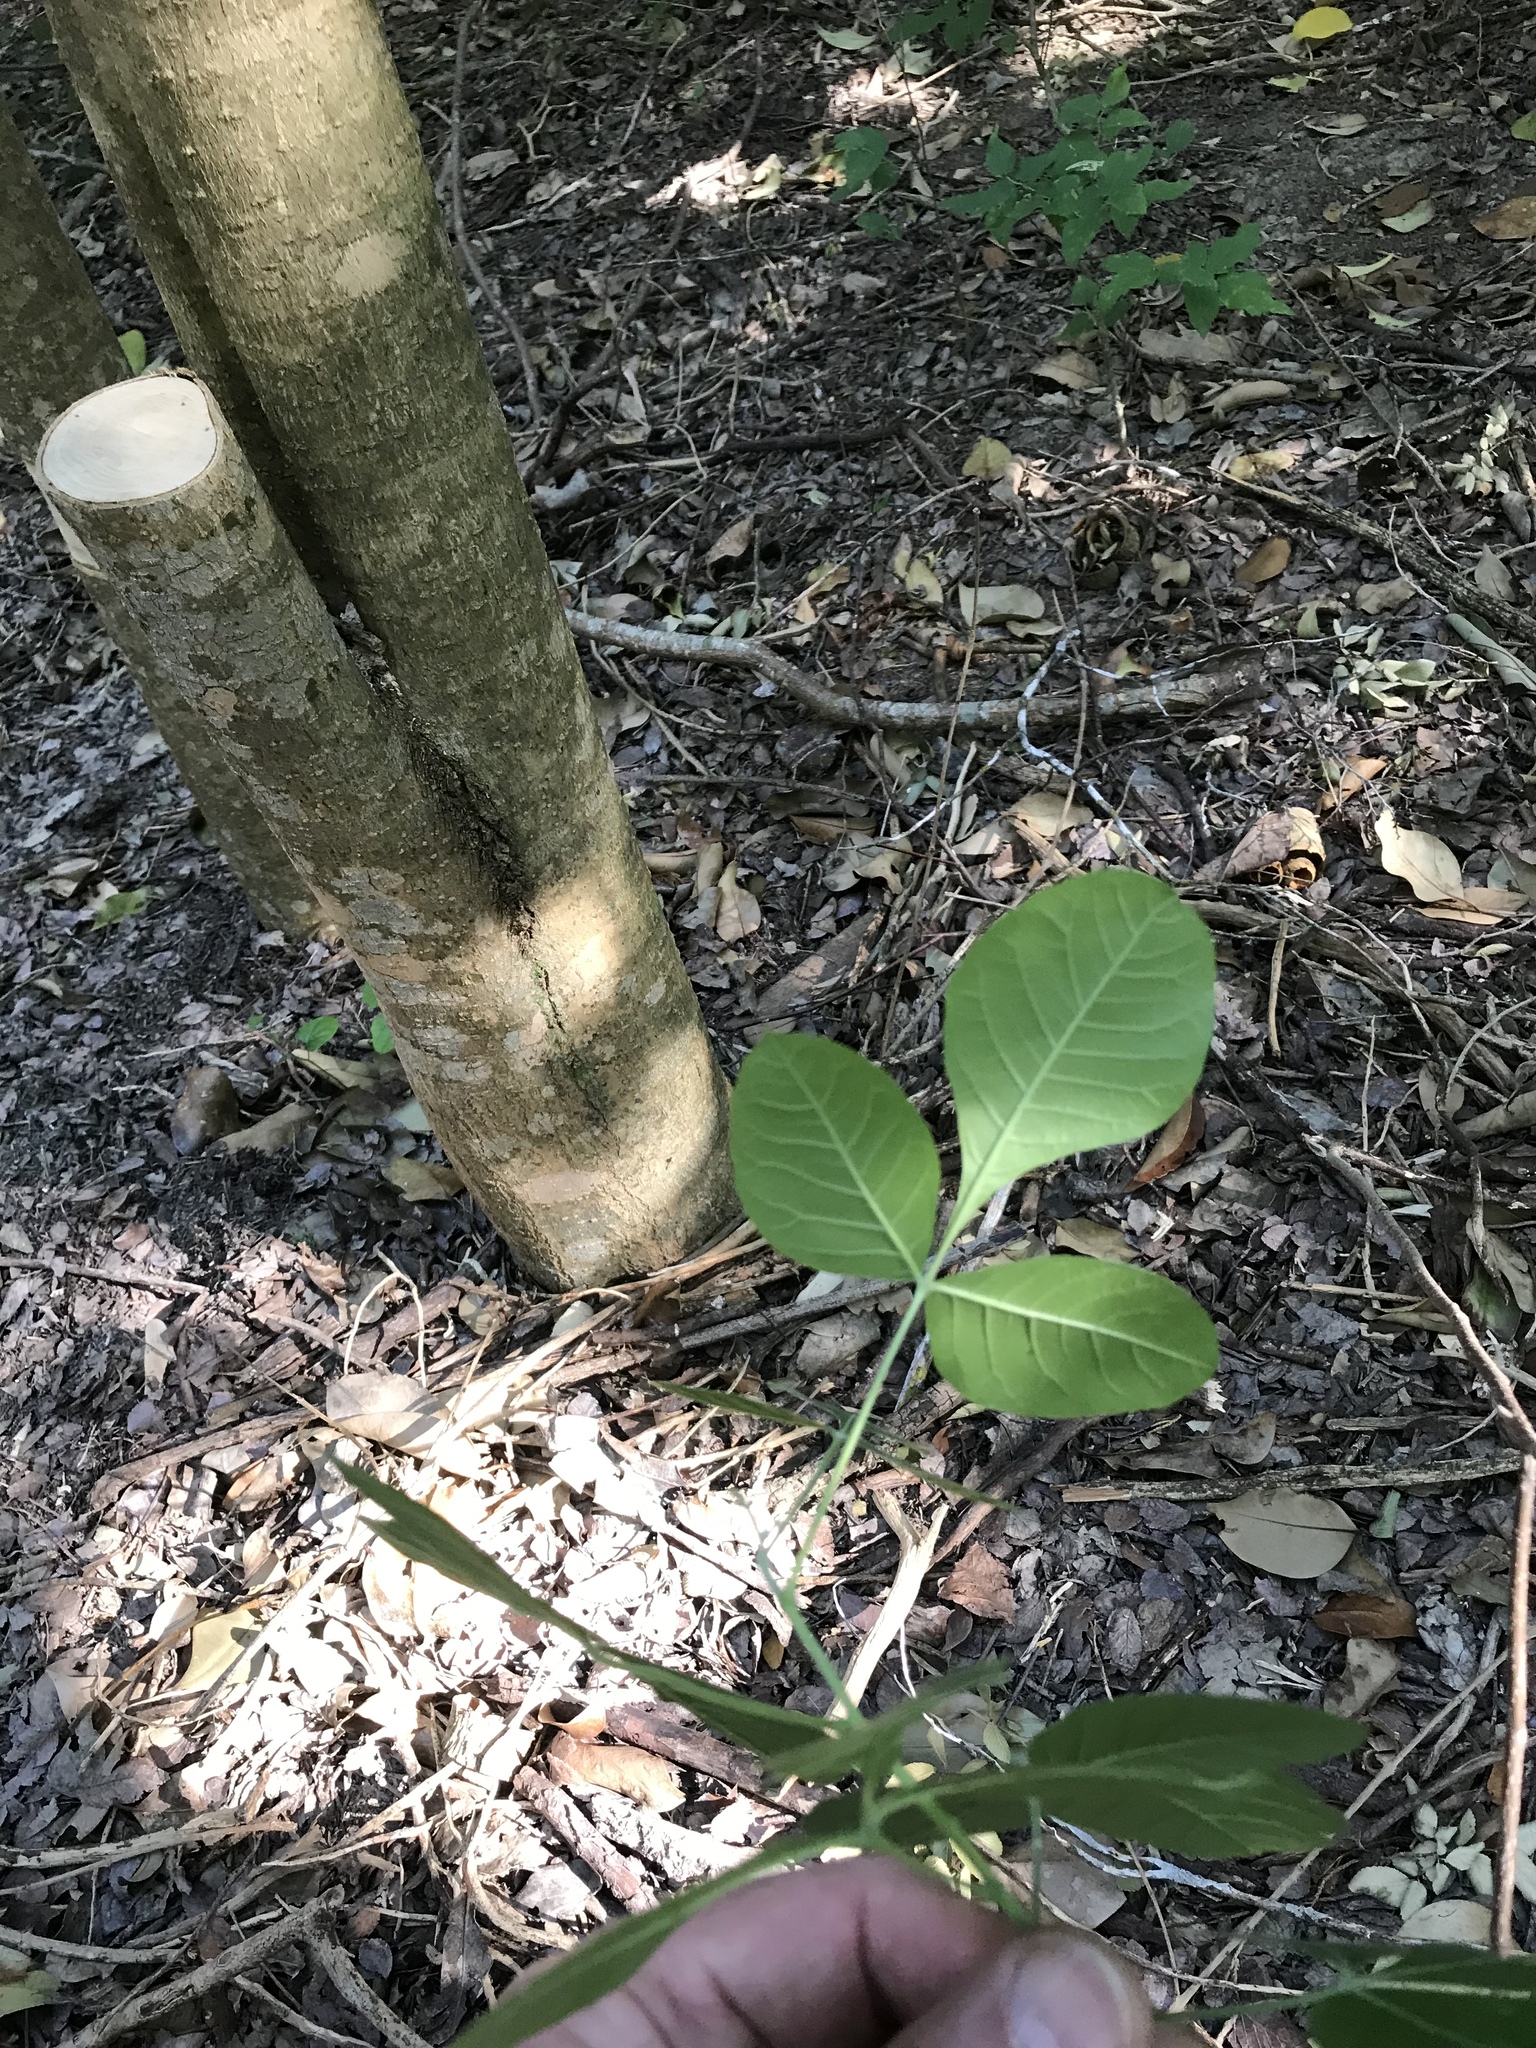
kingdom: Plantae
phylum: Tracheophyta
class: Magnoliopsida
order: Sapindales
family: Rutaceae
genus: Ptelea
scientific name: Ptelea trifoliata
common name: Common hop-tree
